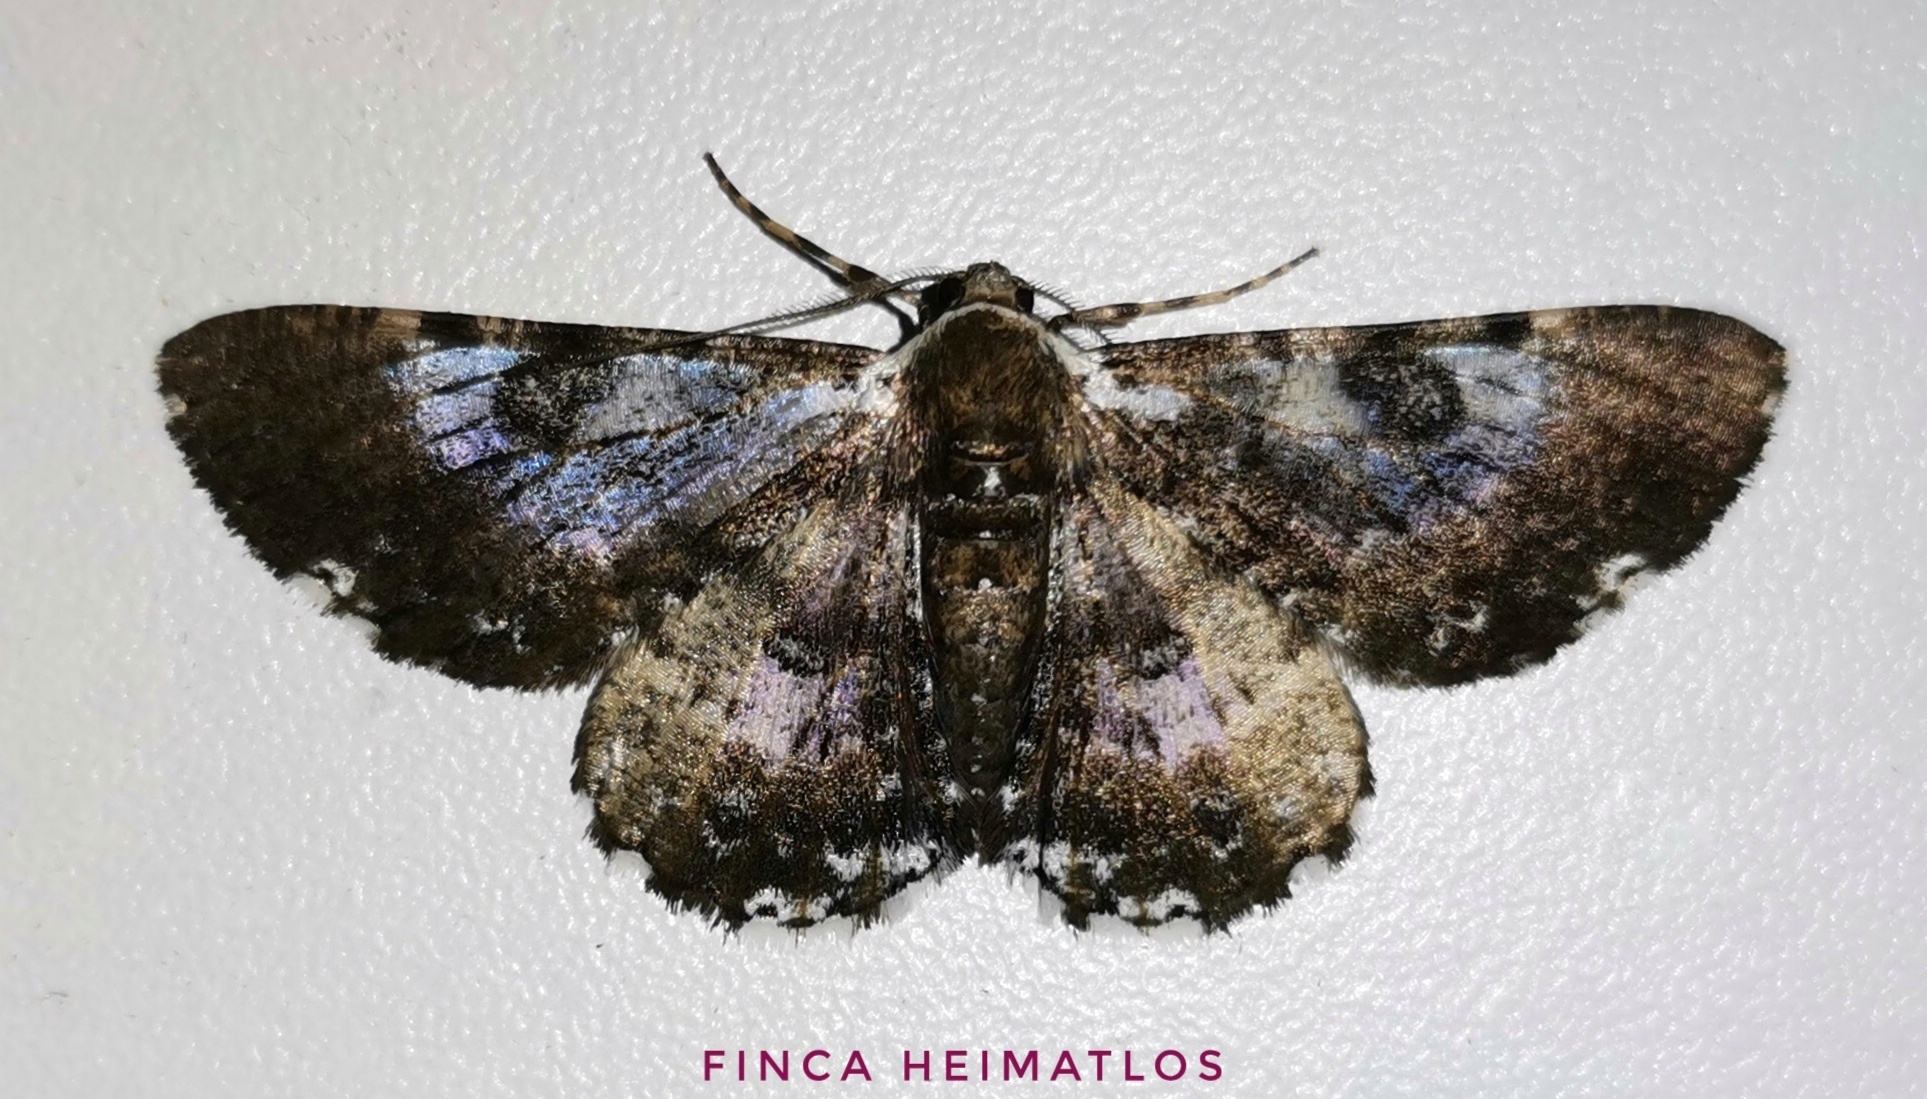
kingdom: Animalia
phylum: Arthropoda
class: Insecta
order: Lepidoptera
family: Geometridae
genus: Iridopsis
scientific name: Iridopsis validaria
